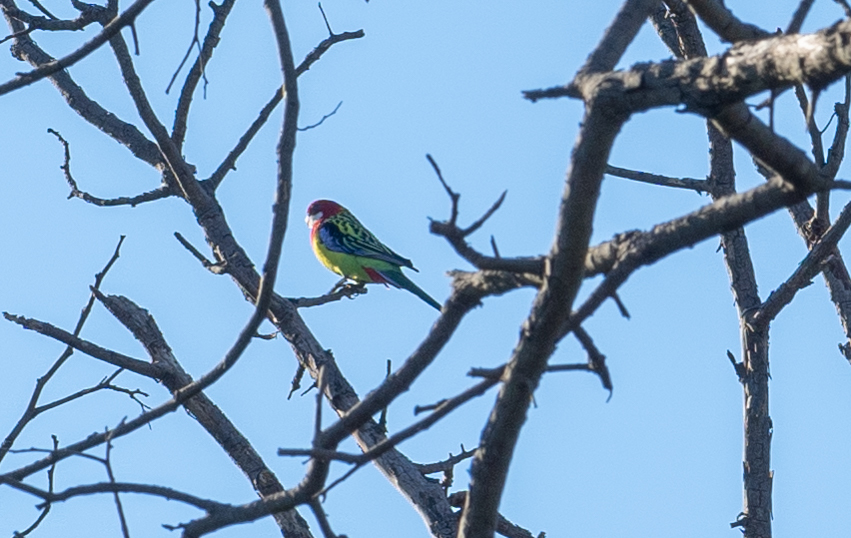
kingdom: Animalia
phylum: Chordata
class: Aves
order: Psittaciformes
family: Psittacidae
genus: Platycercus
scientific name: Platycercus eximius
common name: Eastern rosella
